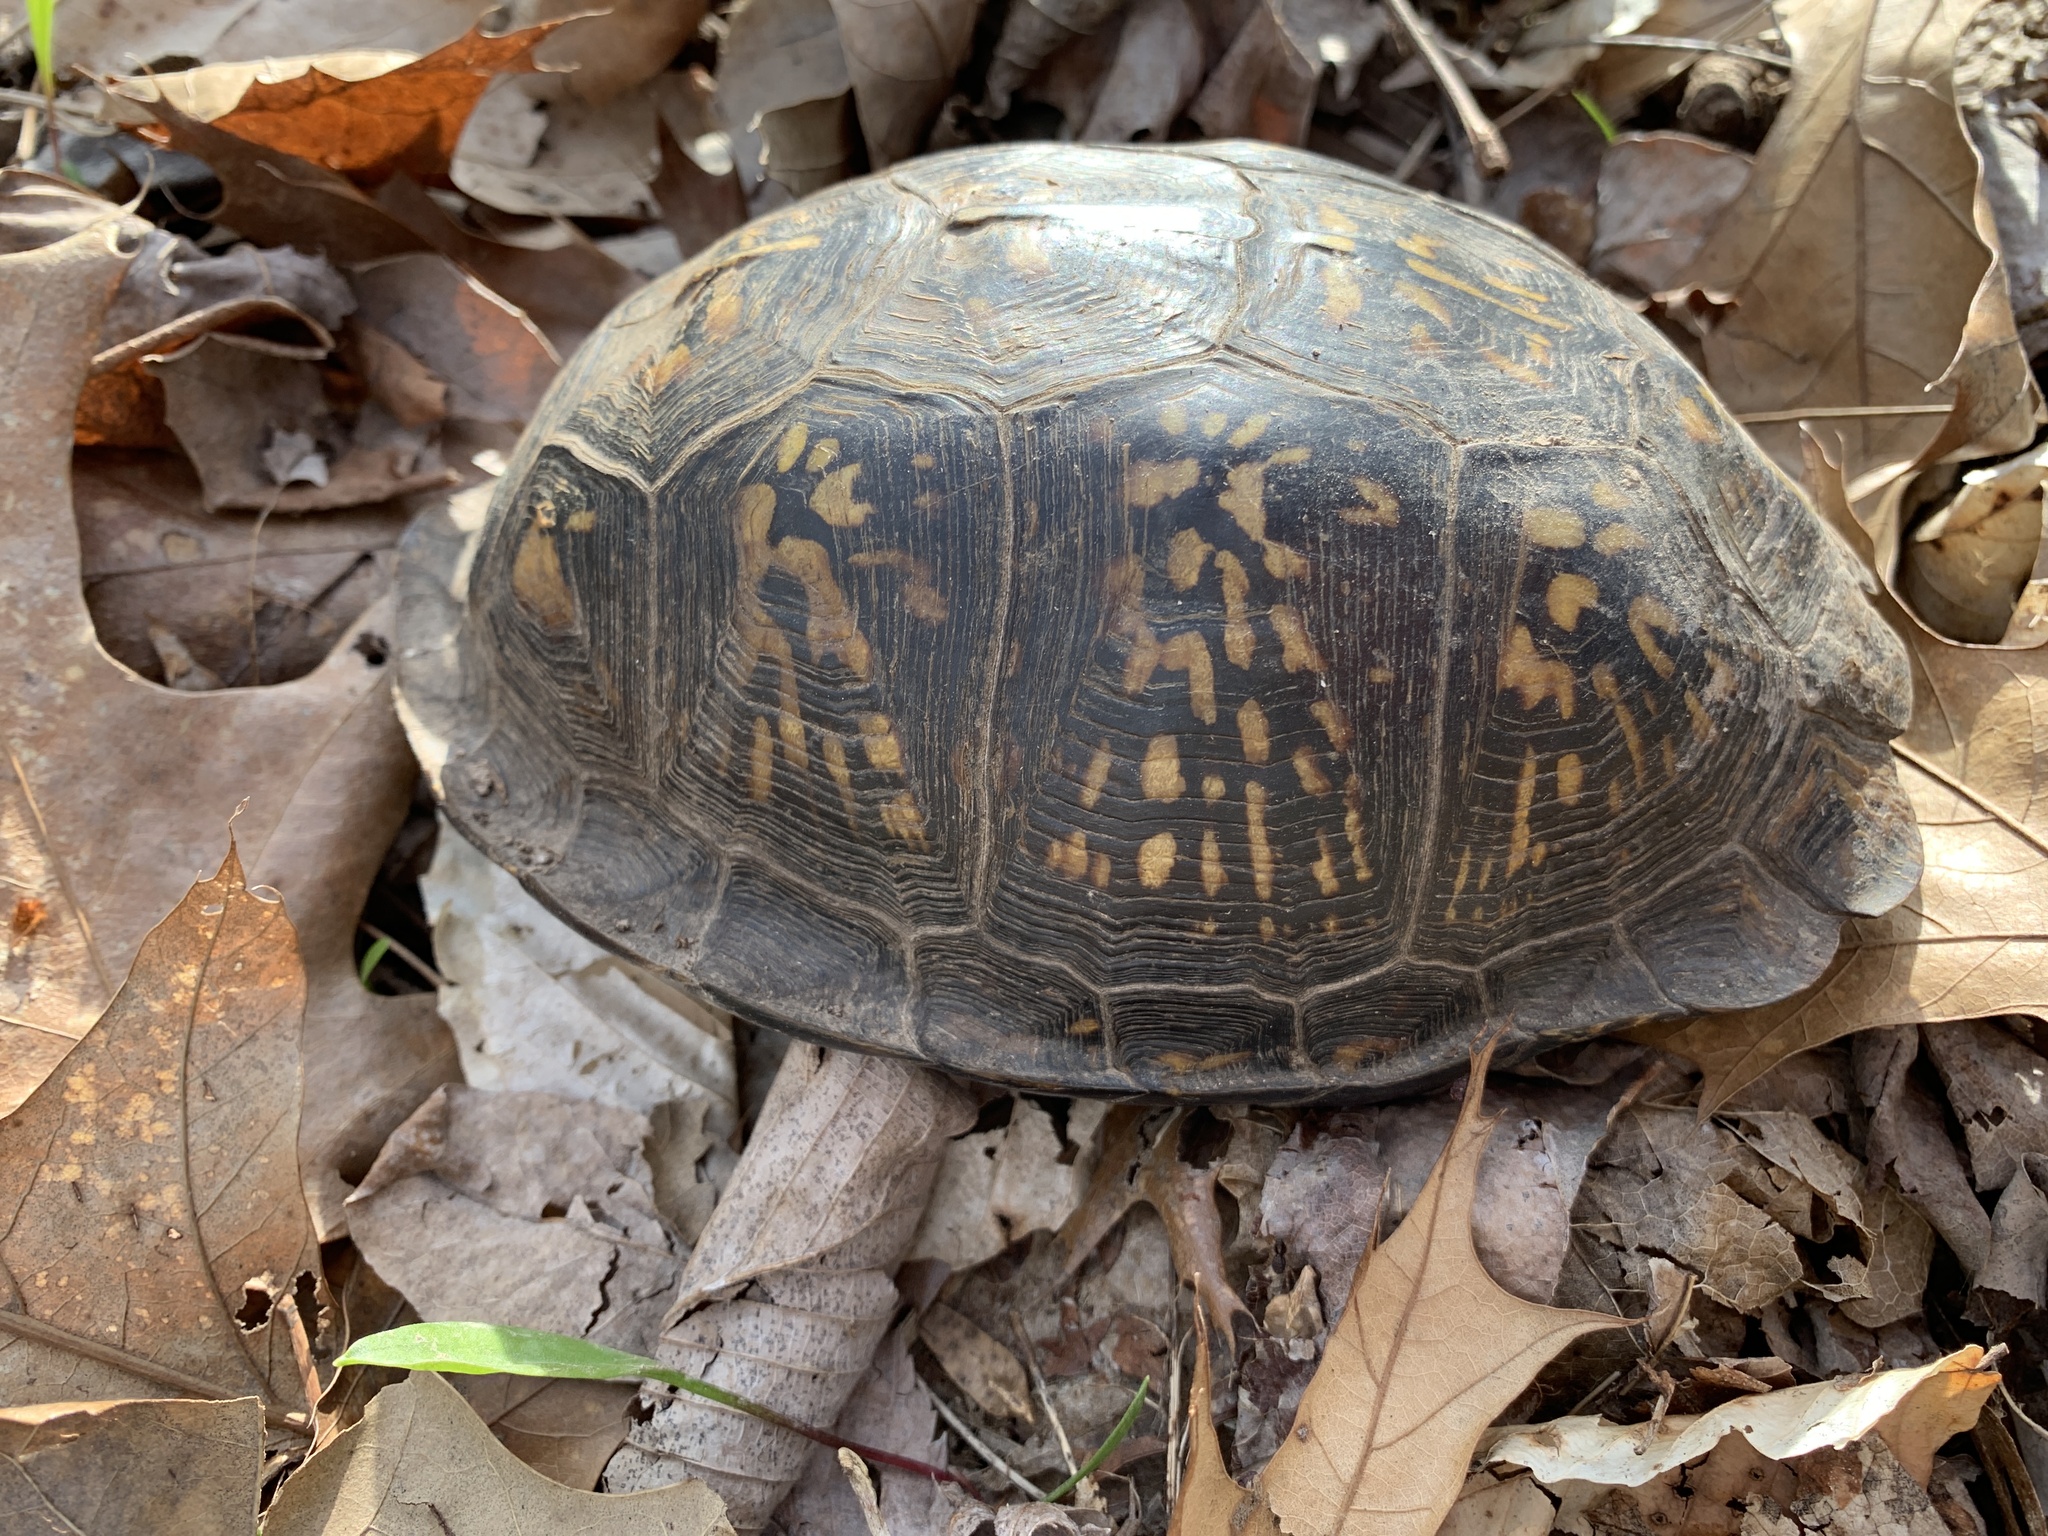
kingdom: Animalia
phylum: Chordata
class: Testudines
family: Emydidae
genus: Terrapene
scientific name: Terrapene carolina
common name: Common box turtle
